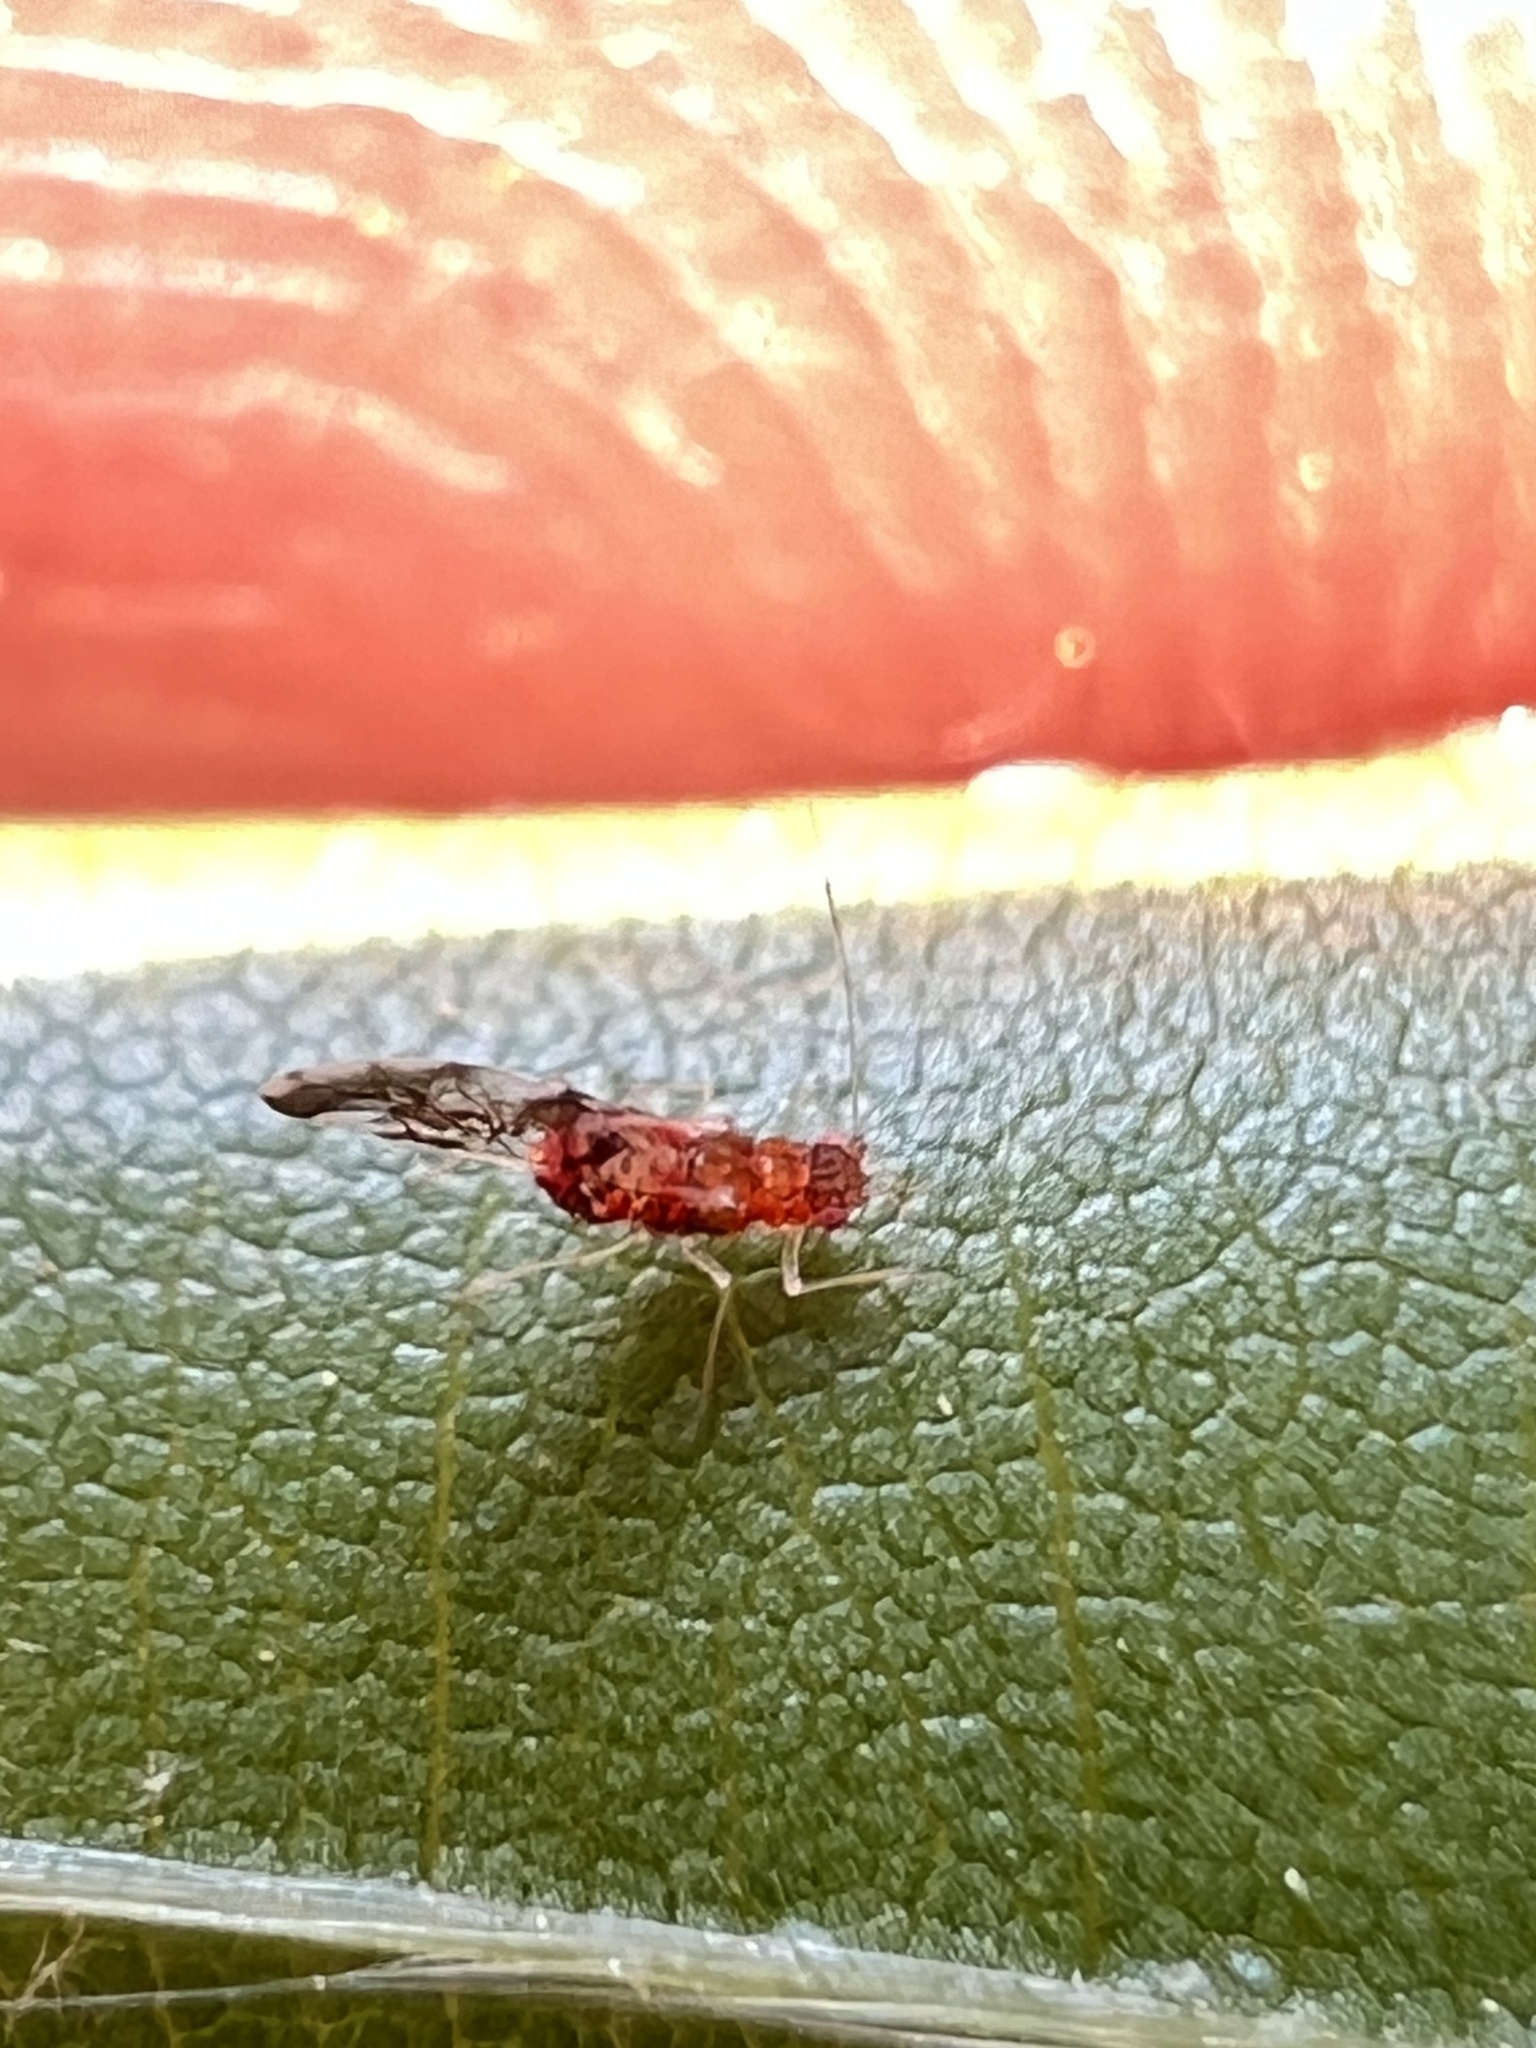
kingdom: Animalia
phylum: Arthropoda
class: Insecta
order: Hemiptera
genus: Neomyzocallis
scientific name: Neomyzocallis
